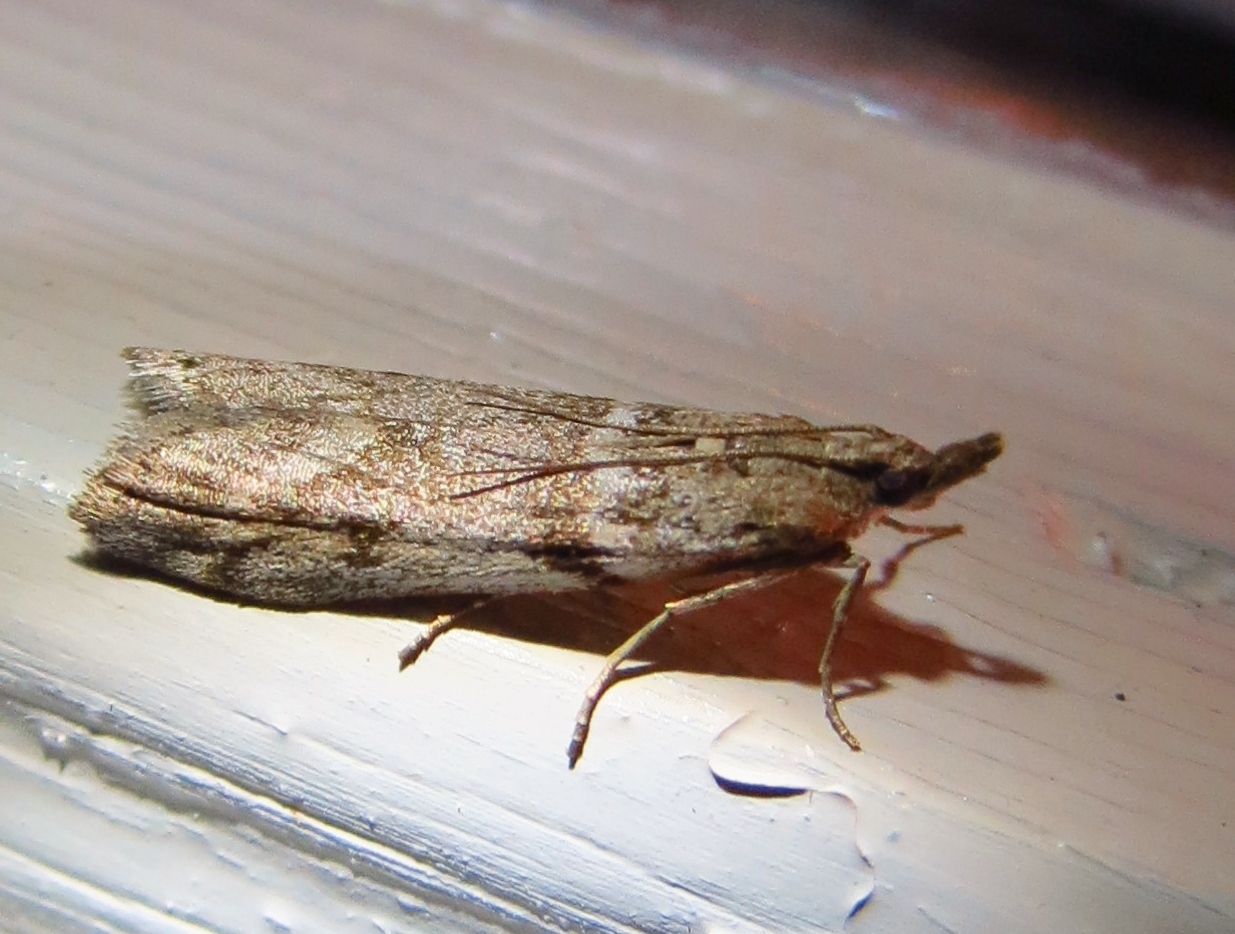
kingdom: Animalia
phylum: Arthropoda
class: Insecta
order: Lepidoptera
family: Pyralidae
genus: Zophodia
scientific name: Zophodia convolutella
